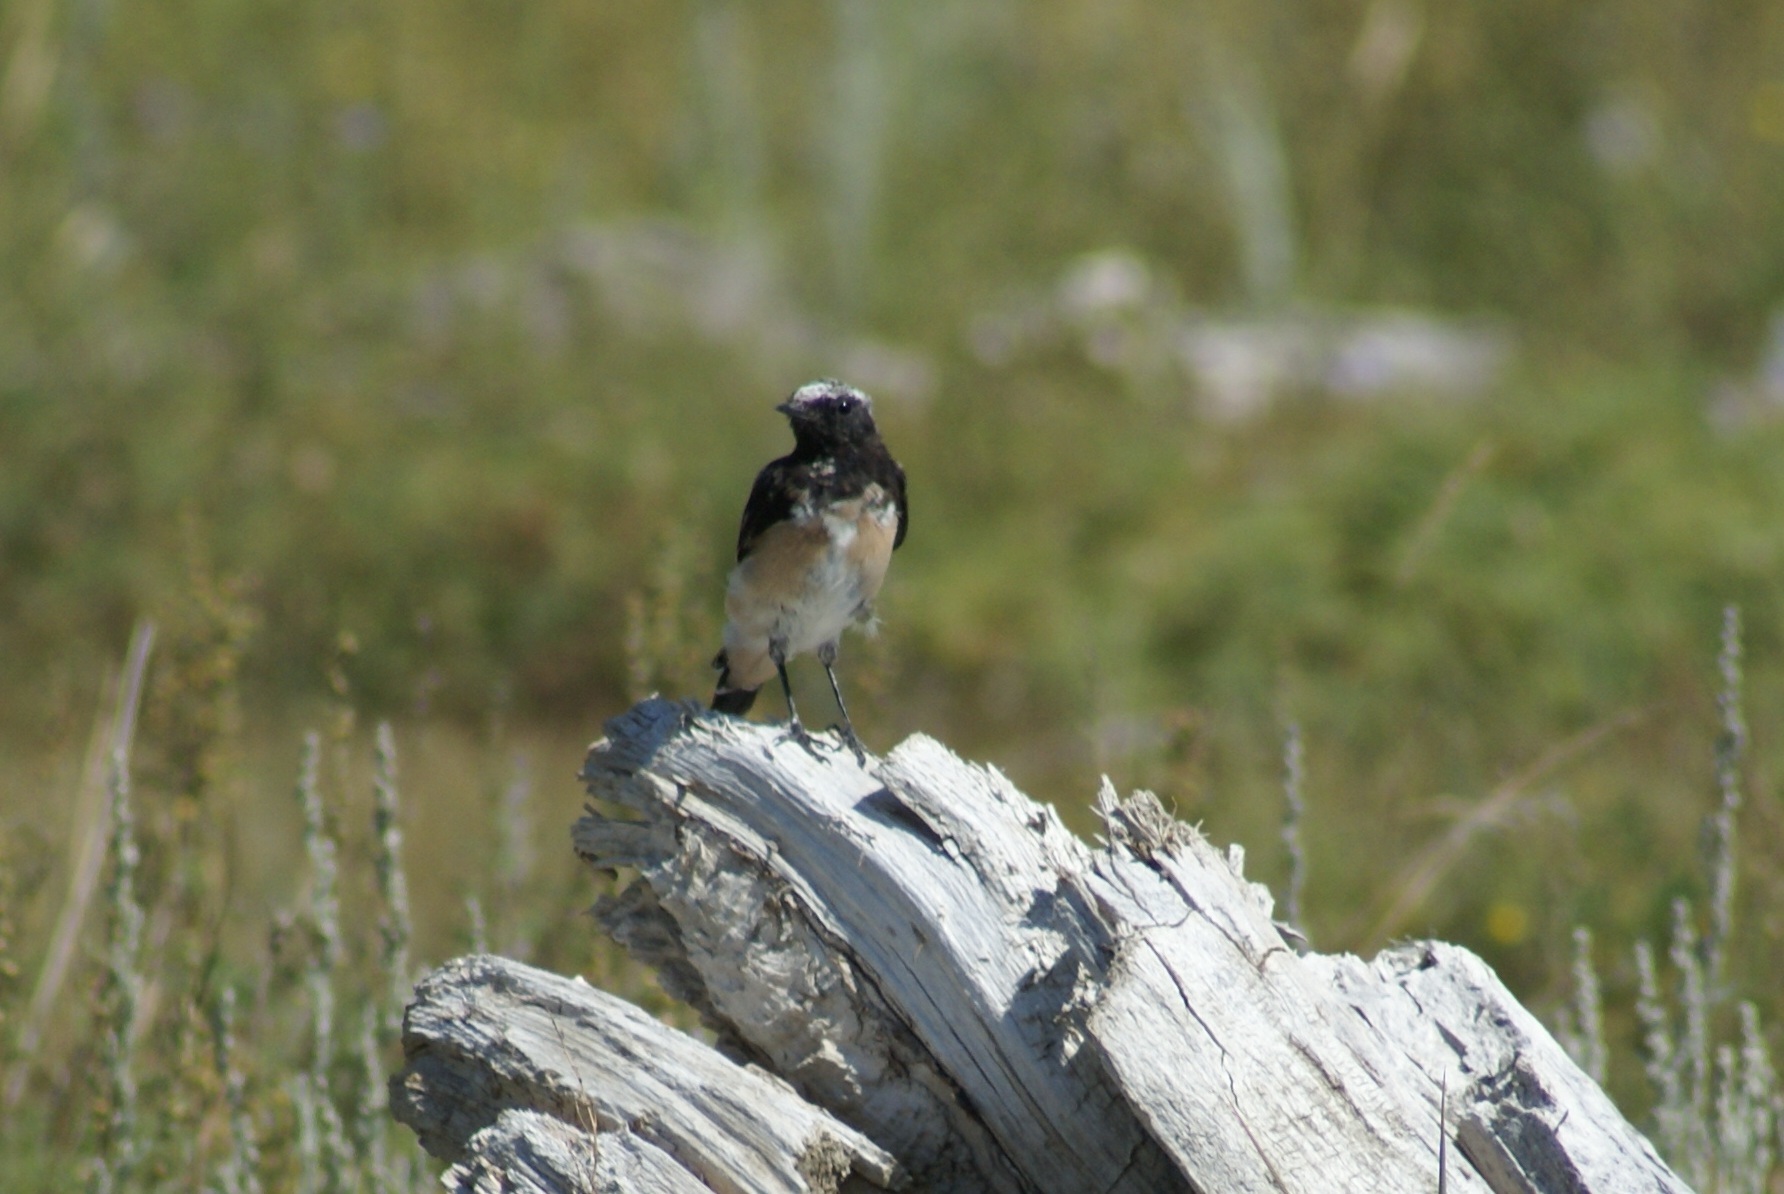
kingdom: Animalia
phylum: Chordata
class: Aves
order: Passeriformes
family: Muscicapidae
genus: Oenanthe
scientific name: Oenanthe pleschanka
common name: Pied wheatear
